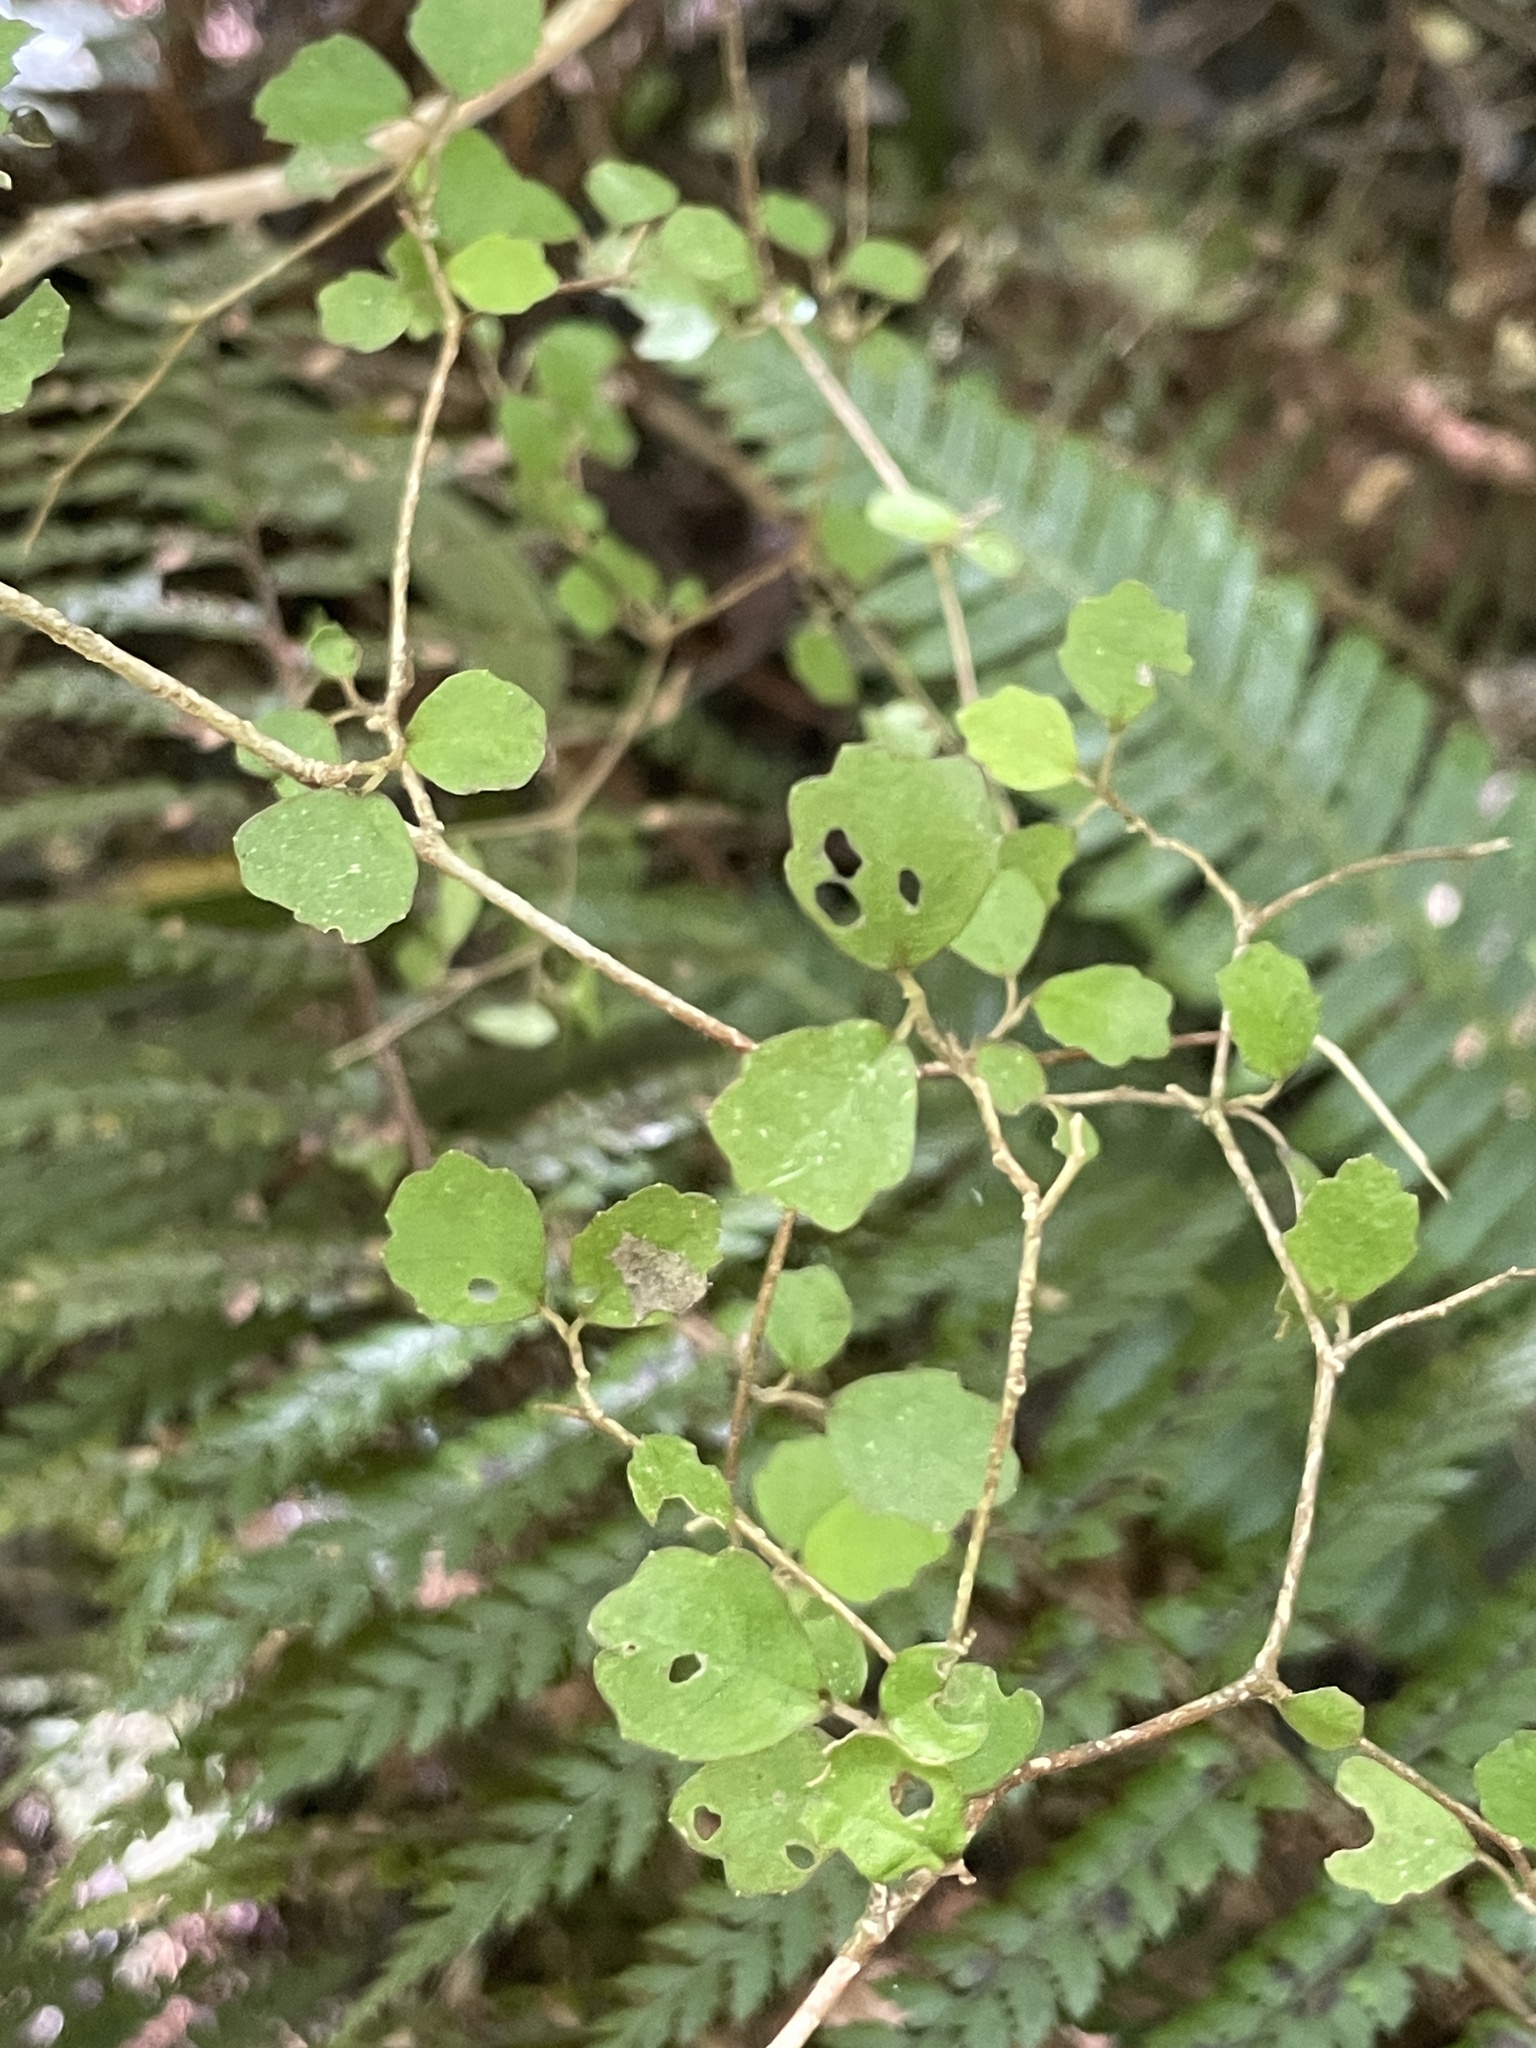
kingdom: Plantae
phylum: Tracheophyta
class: Magnoliopsida
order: Apiales
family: Pennantiaceae
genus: Pennantia
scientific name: Pennantia corymbosa
